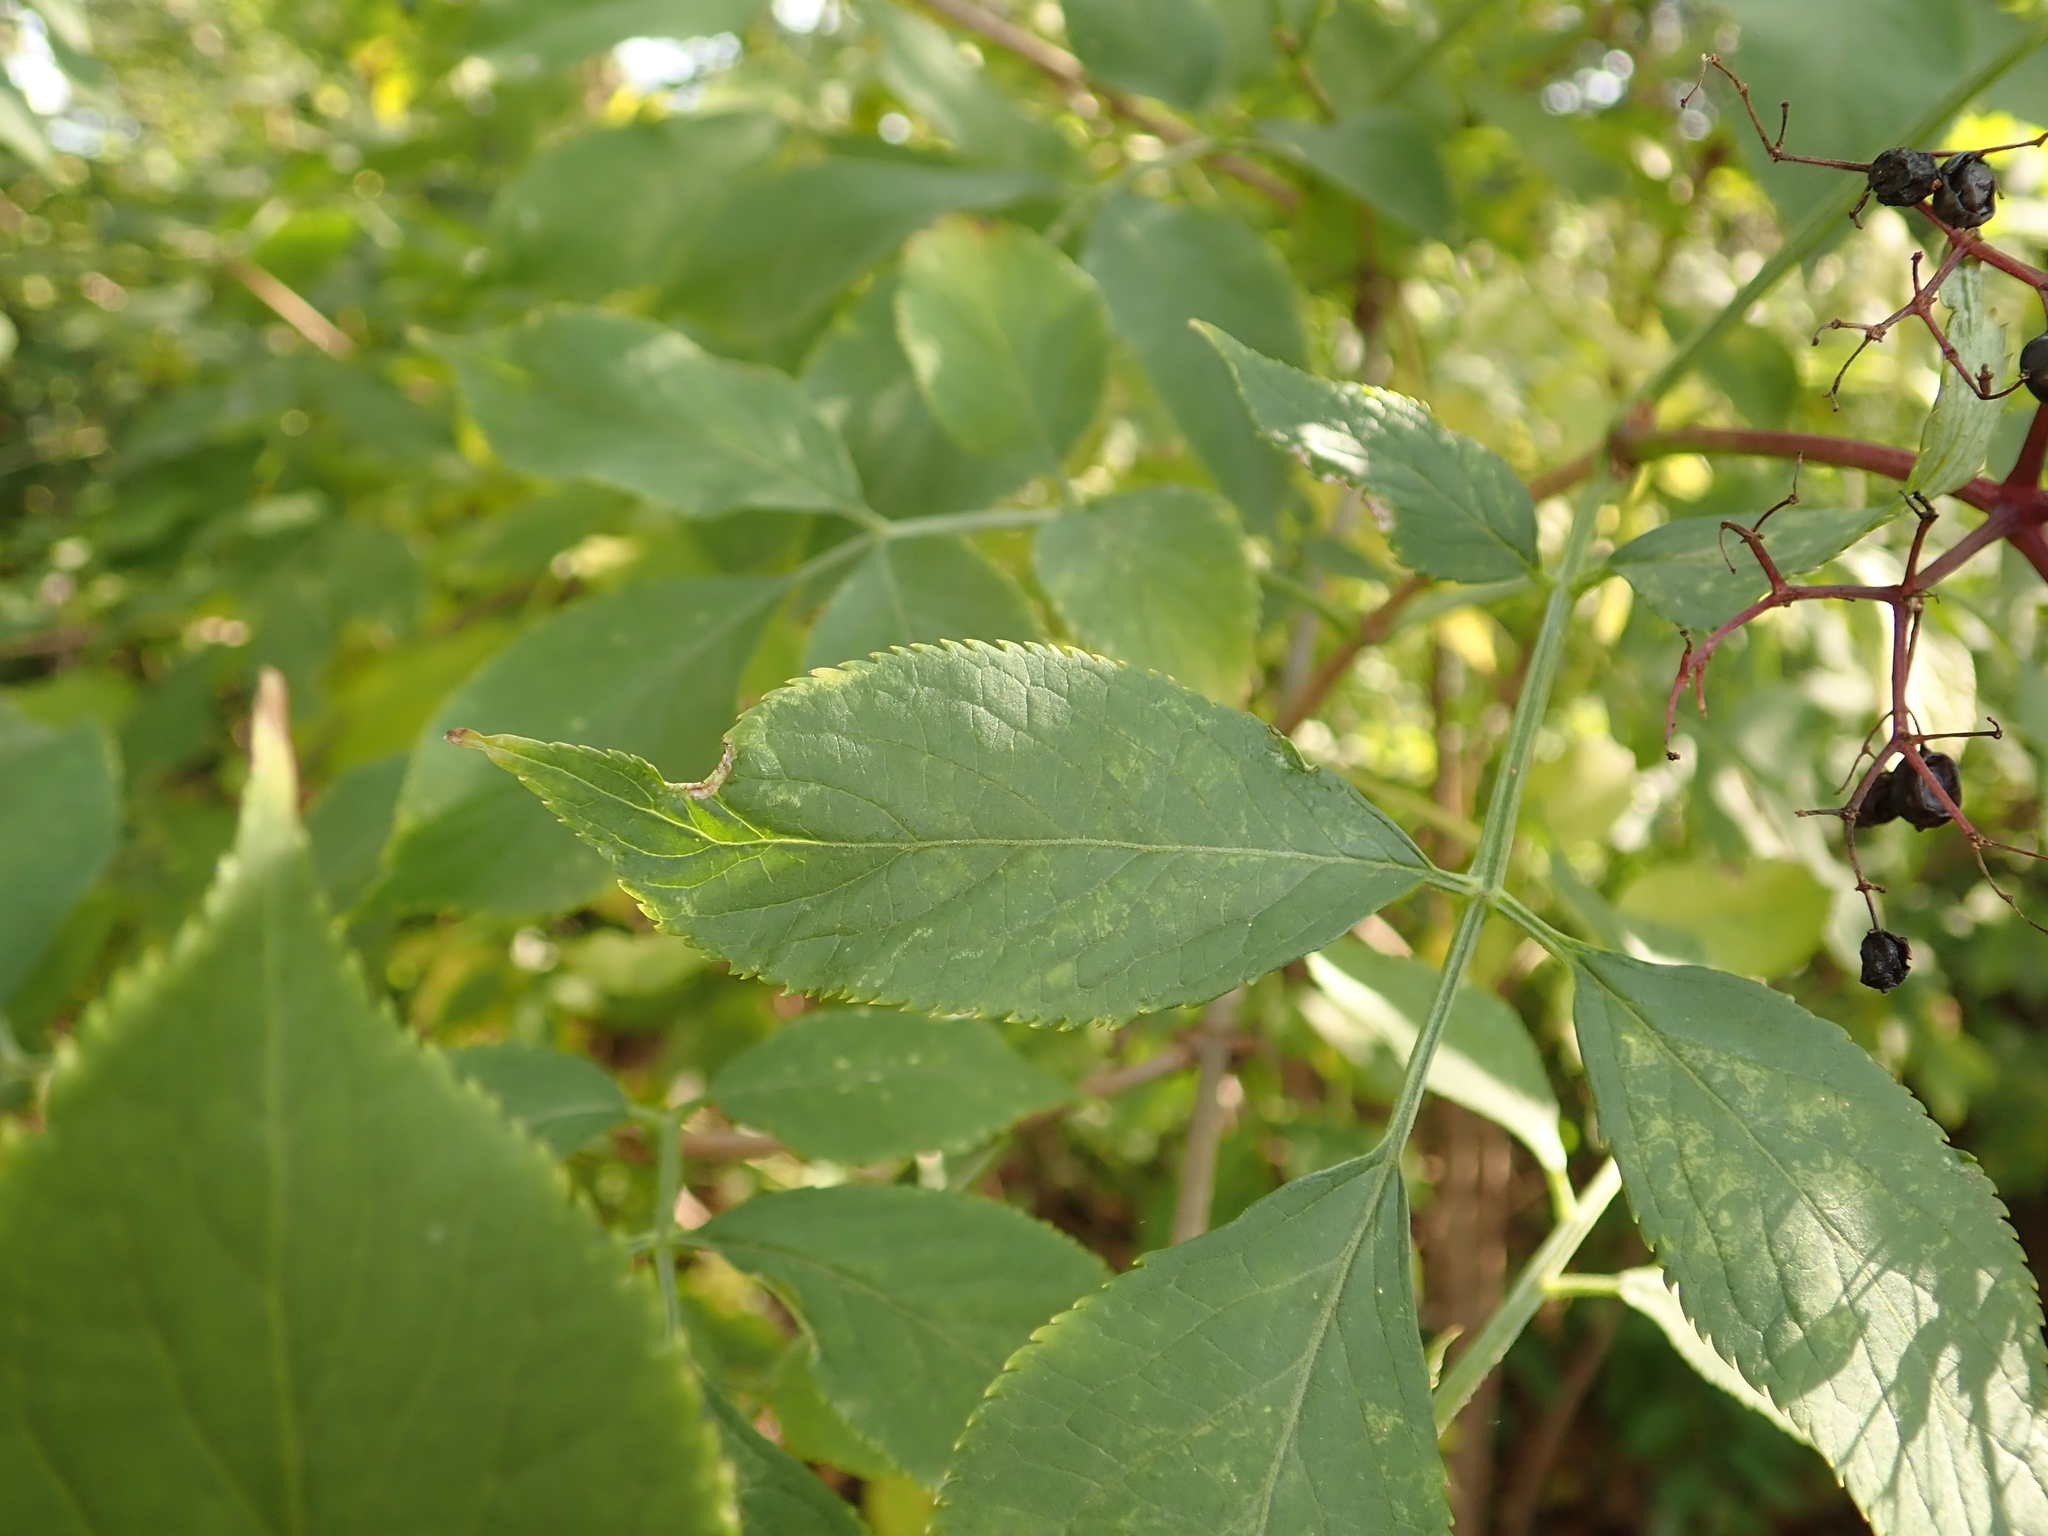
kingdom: Plantae
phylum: Tracheophyta
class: Magnoliopsida
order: Dipsacales
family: Viburnaceae
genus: Sambucus
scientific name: Sambucus nigra
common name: Elder
